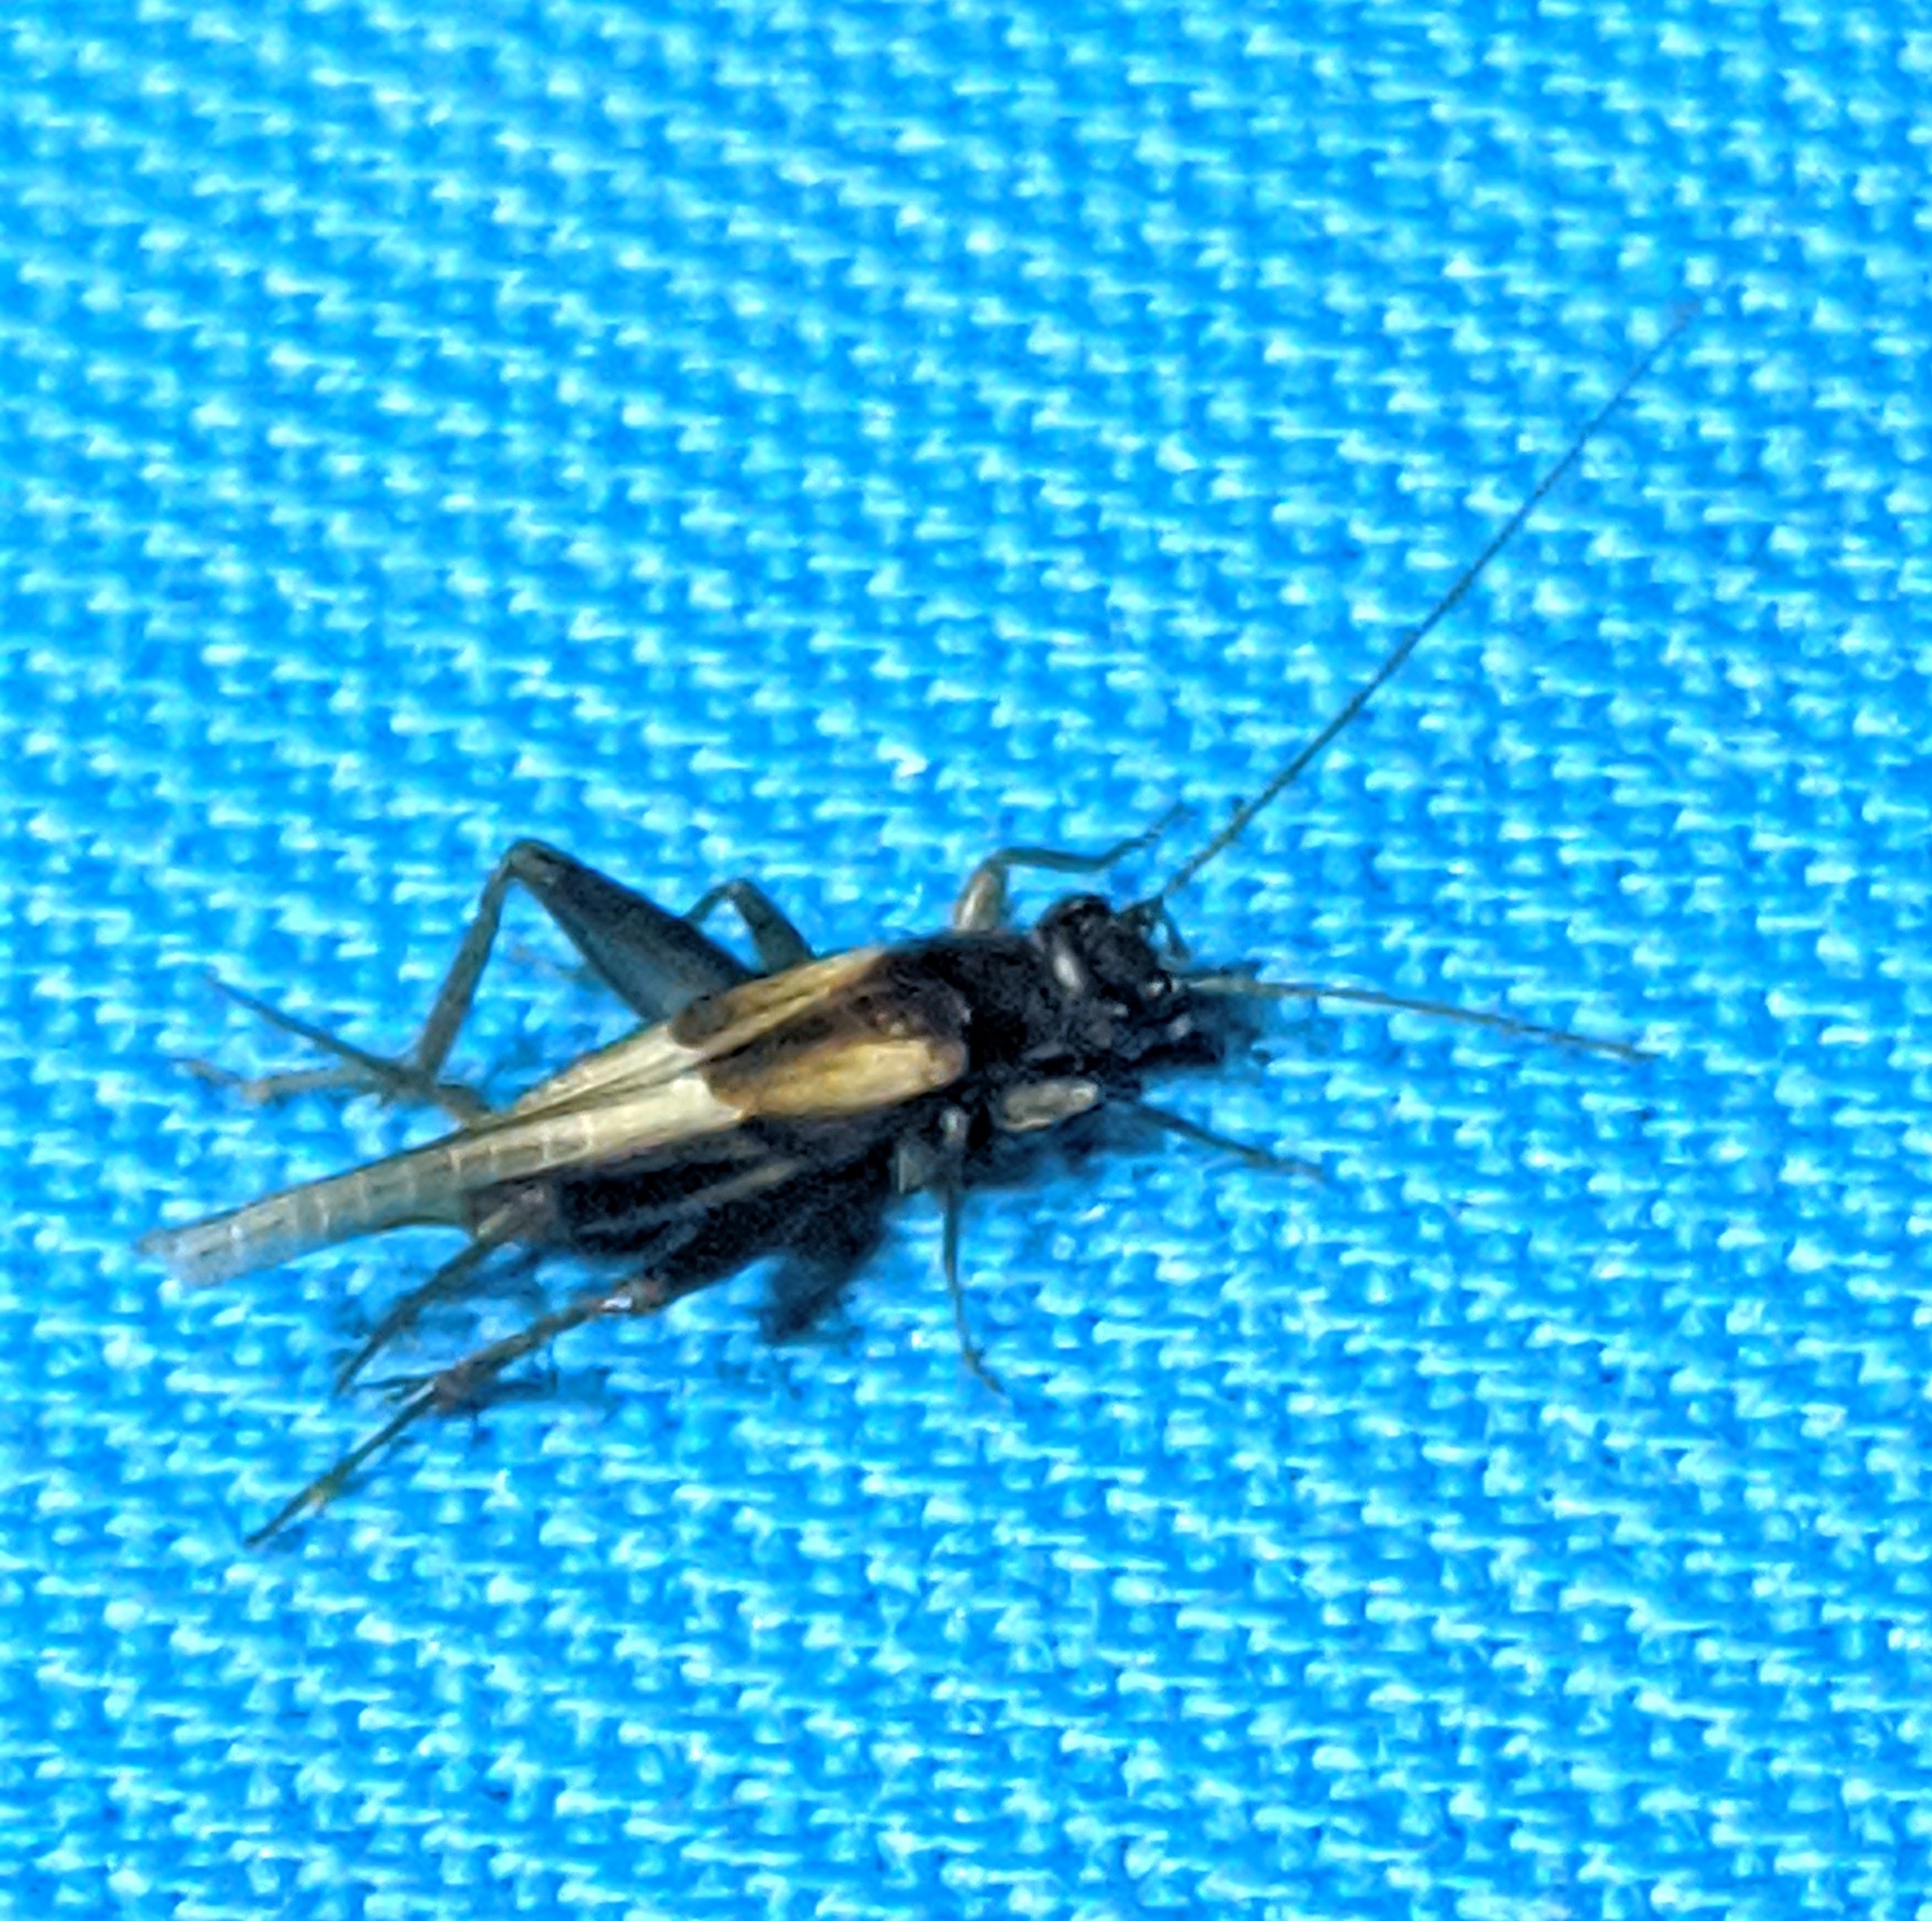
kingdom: Animalia
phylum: Arthropoda
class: Insecta
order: Orthoptera
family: Trigonidiidae
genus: Stenonemobius
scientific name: Stenonemobius gracilis
